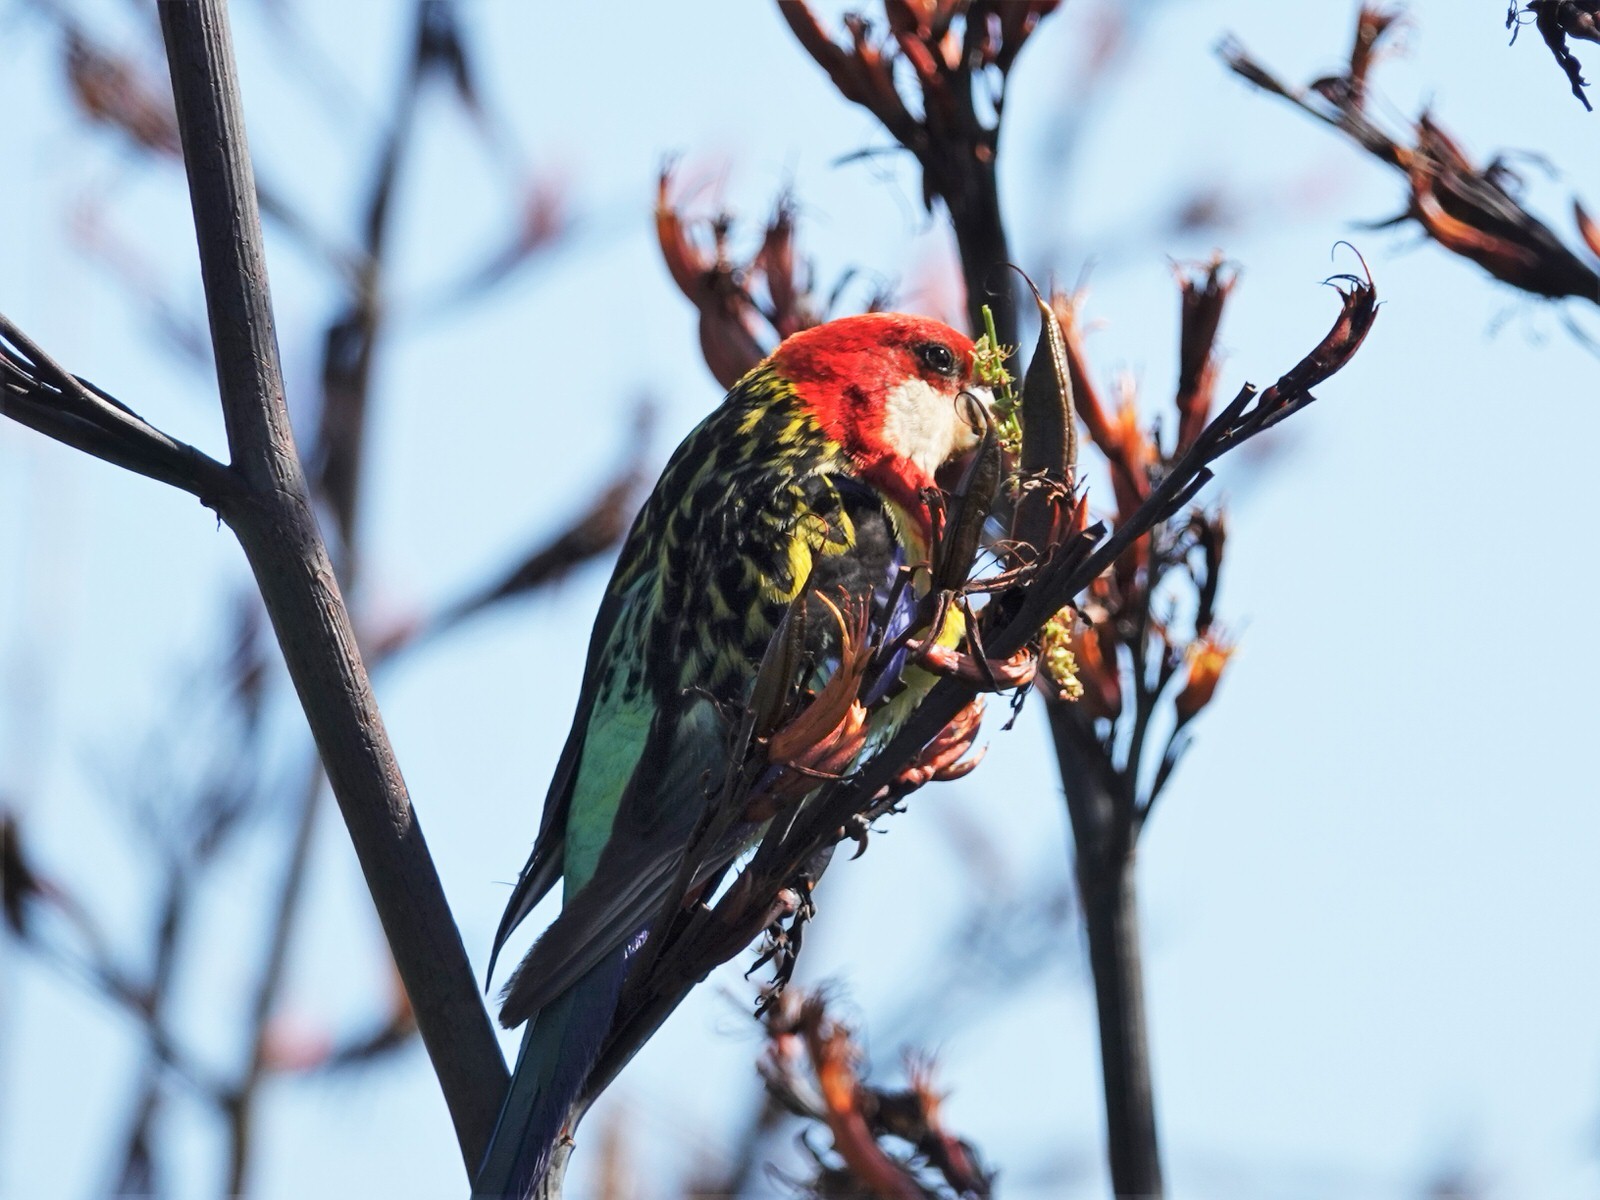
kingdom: Animalia
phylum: Chordata
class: Aves
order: Psittaciformes
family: Psittacidae
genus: Platycercus
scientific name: Platycercus eximius
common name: Eastern rosella
